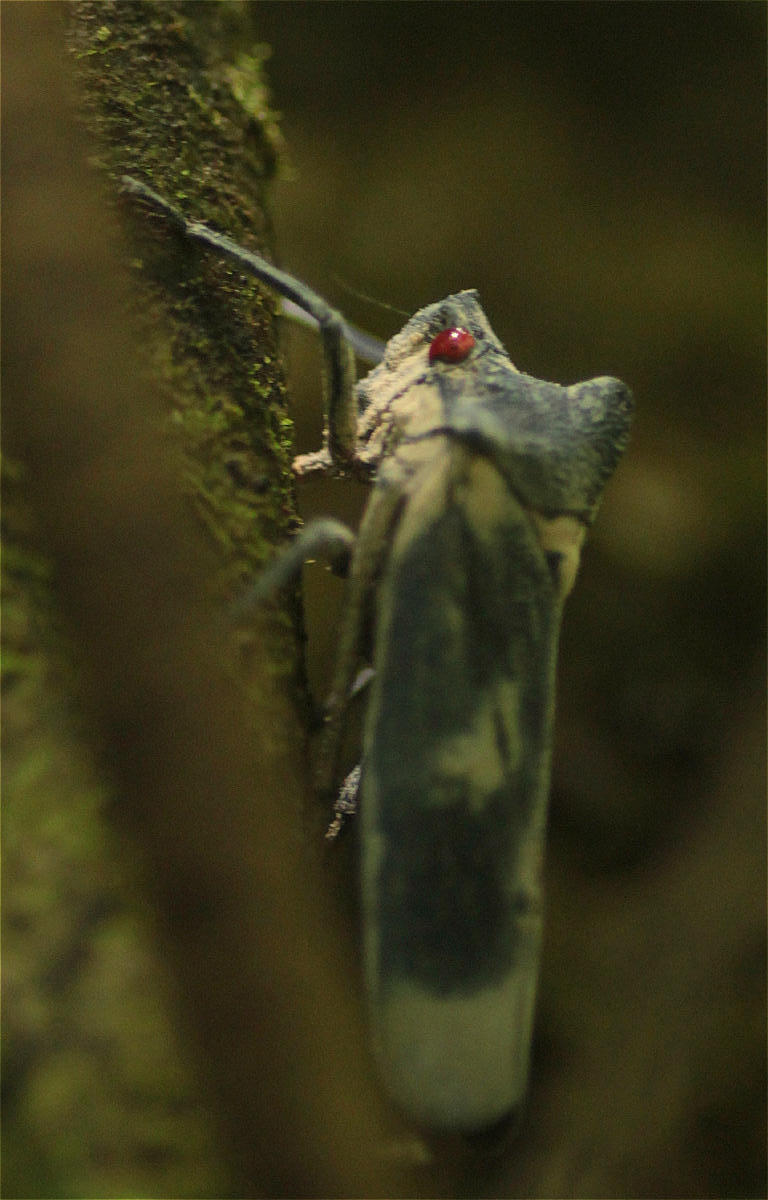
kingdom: Animalia
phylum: Arthropoda
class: Insecta
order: Hemiptera
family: Cicadellidae
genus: Proconia
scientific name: Proconia lutzi
